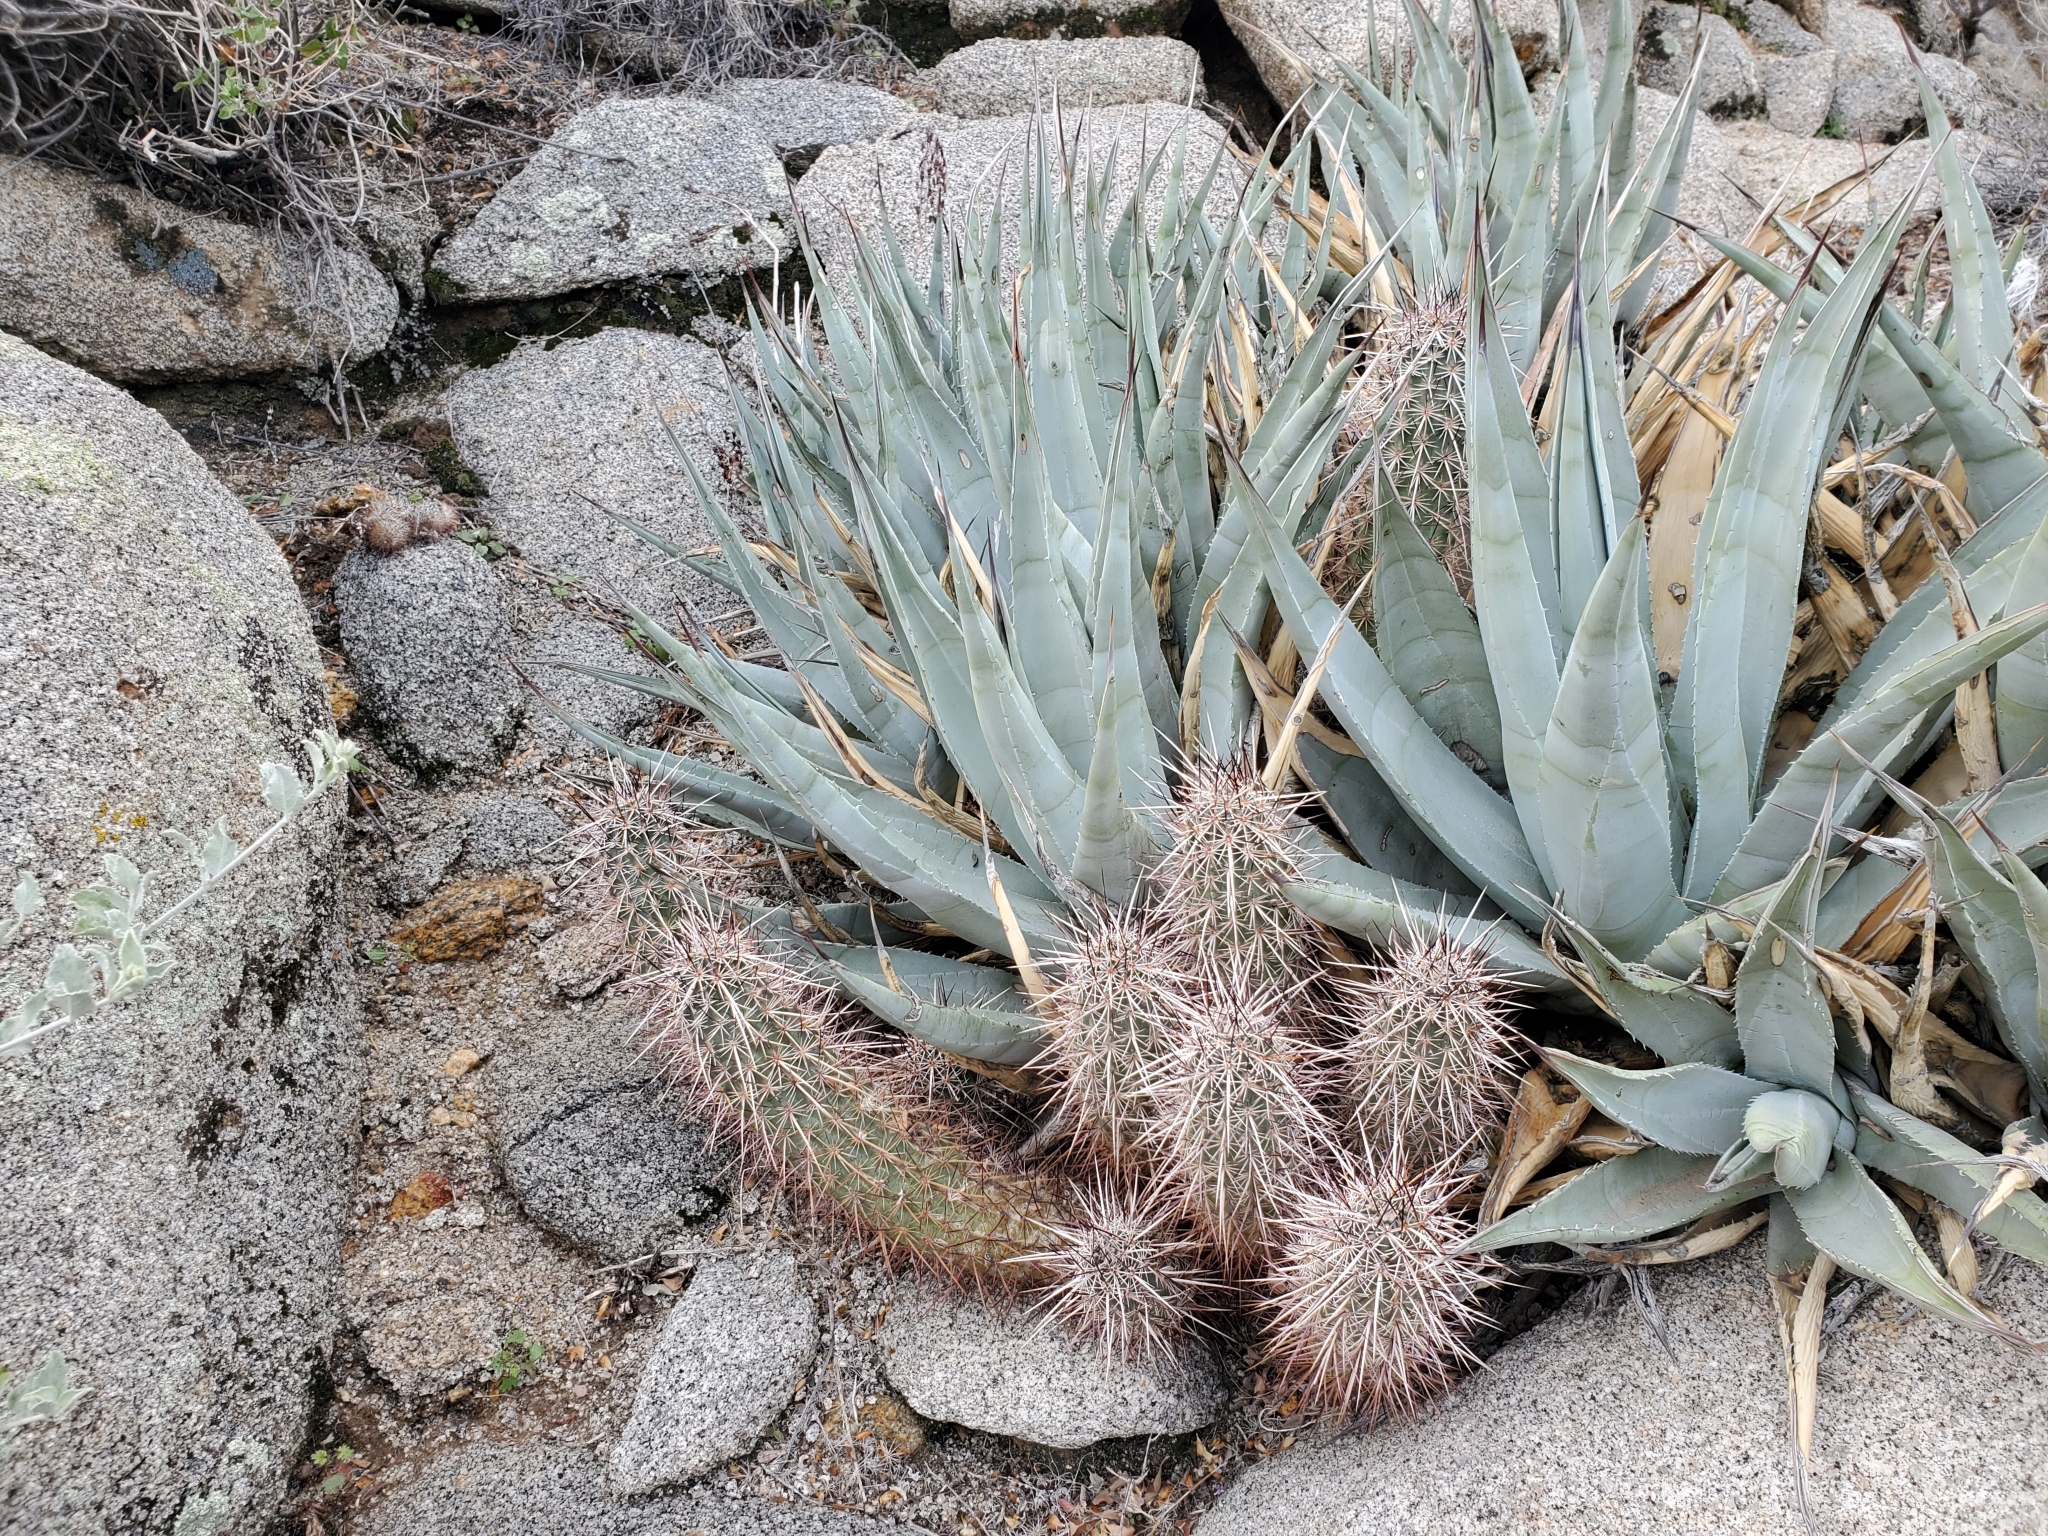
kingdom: Plantae
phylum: Tracheophyta
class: Magnoliopsida
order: Caryophyllales
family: Cactaceae
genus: Echinocereus
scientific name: Echinocereus engelmannii
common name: Engelmann's hedgehog cactus
